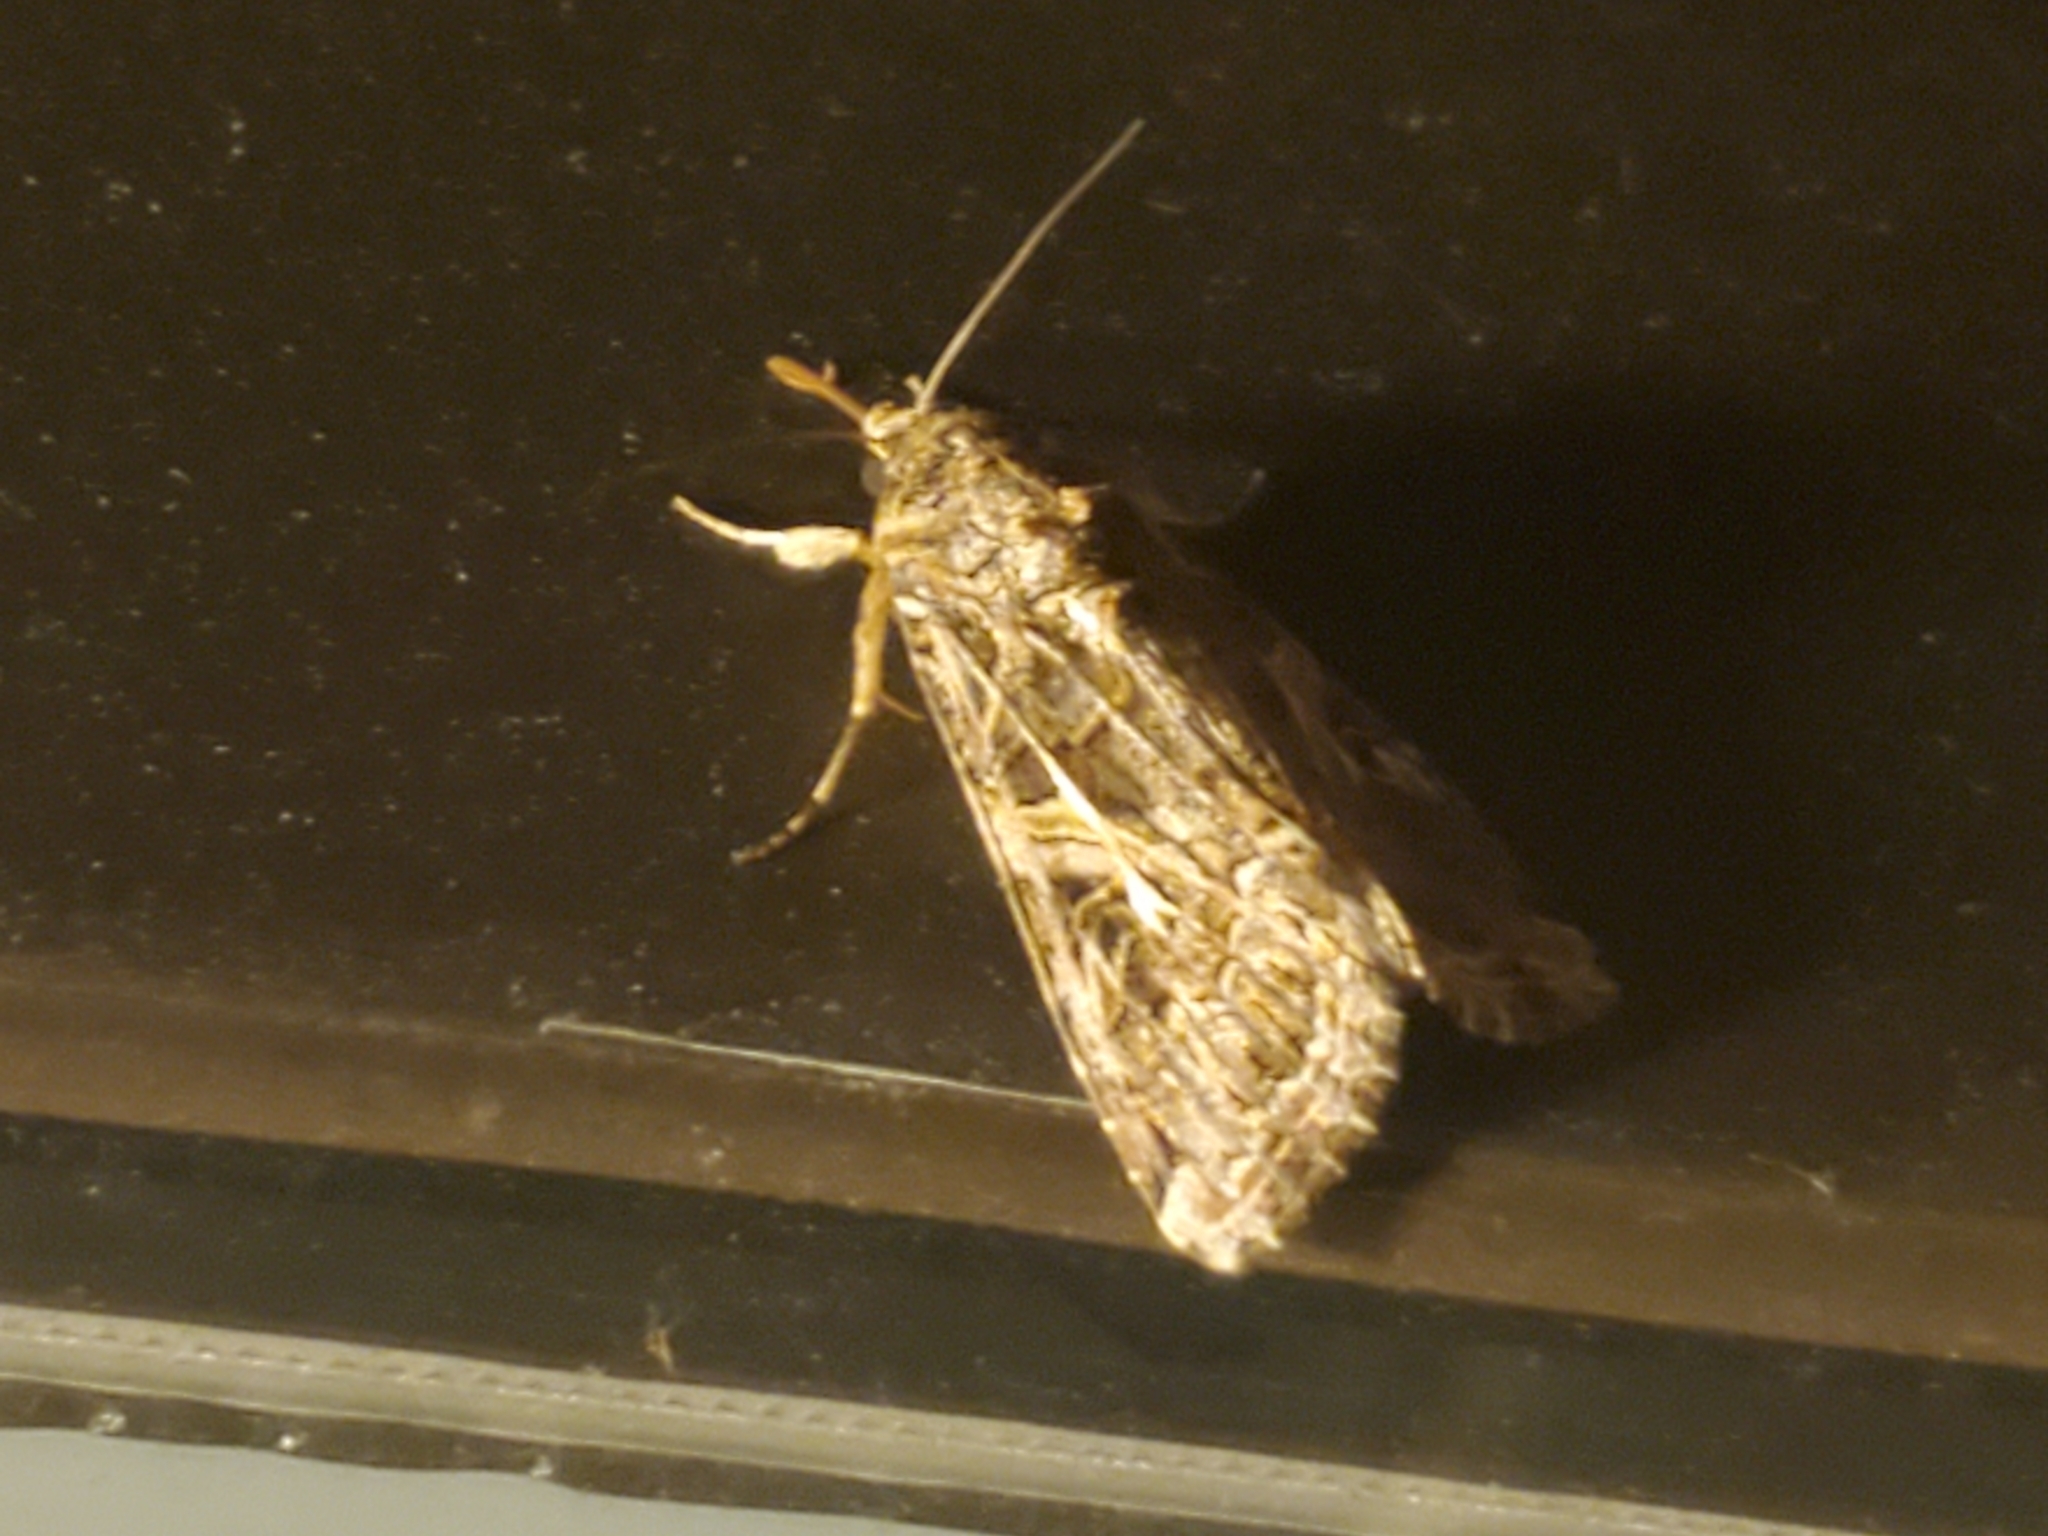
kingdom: Animalia
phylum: Arthropoda
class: Insecta
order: Lepidoptera
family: Noctuidae
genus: Spodoptera
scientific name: Spodoptera ornithogalli
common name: Yellow-striped armyworm
